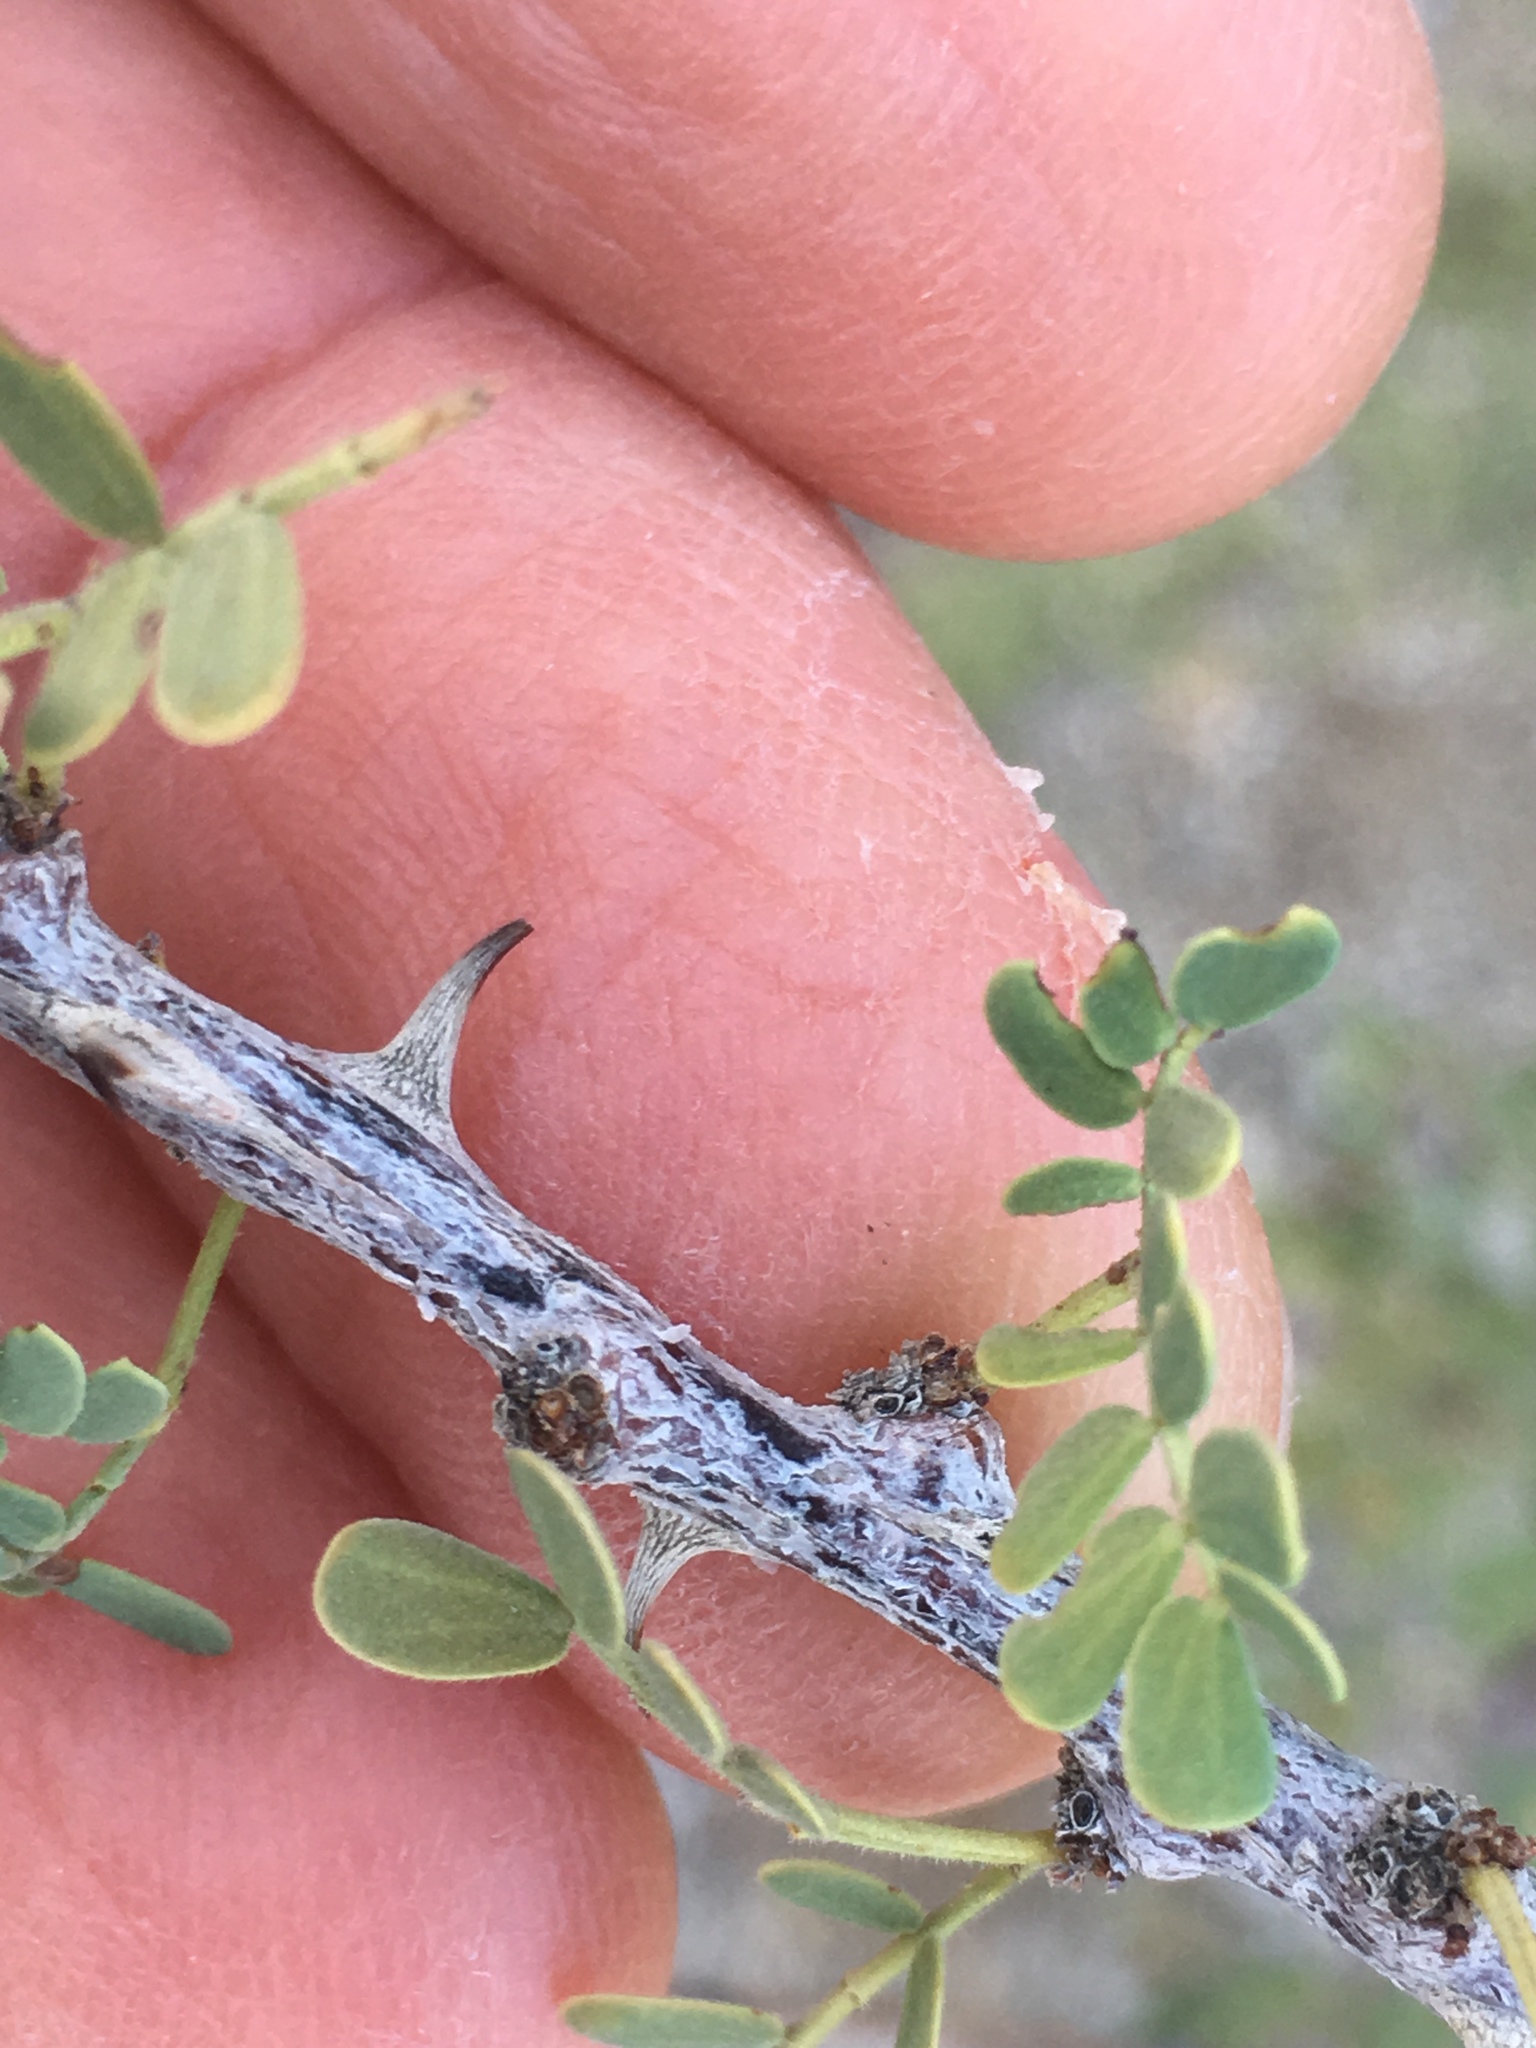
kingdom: Plantae
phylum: Tracheophyta
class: Magnoliopsida
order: Fabales
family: Fabaceae
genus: Senegalia
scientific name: Senegalia greggii
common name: Texas-mimosa
